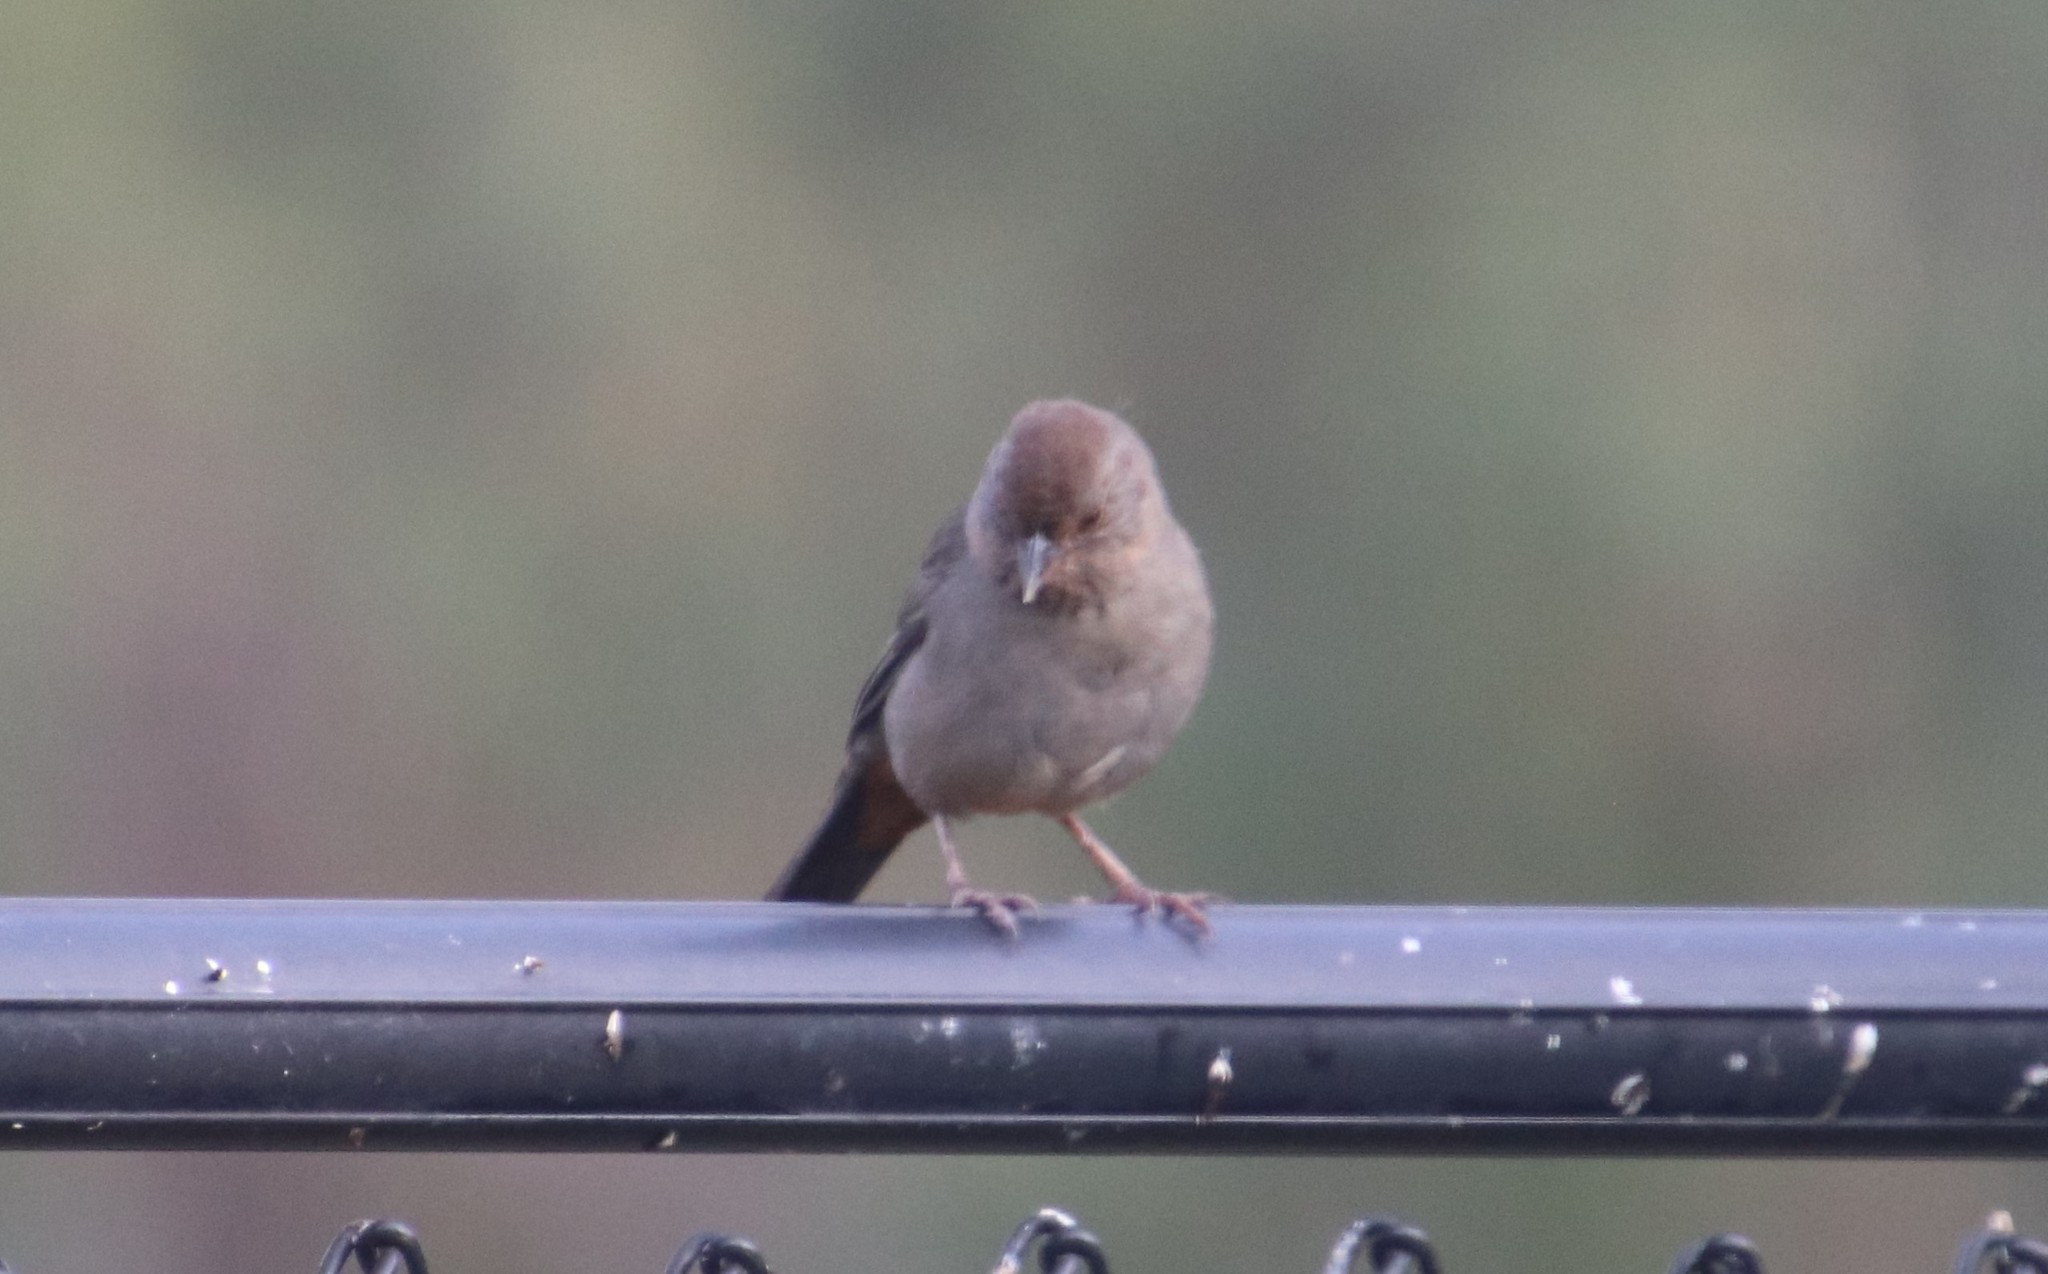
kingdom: Animalia
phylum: Chordata
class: Aves
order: Passeriformes
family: Passerellidae
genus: Melozone
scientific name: Melozone crissalis
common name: California towhee
